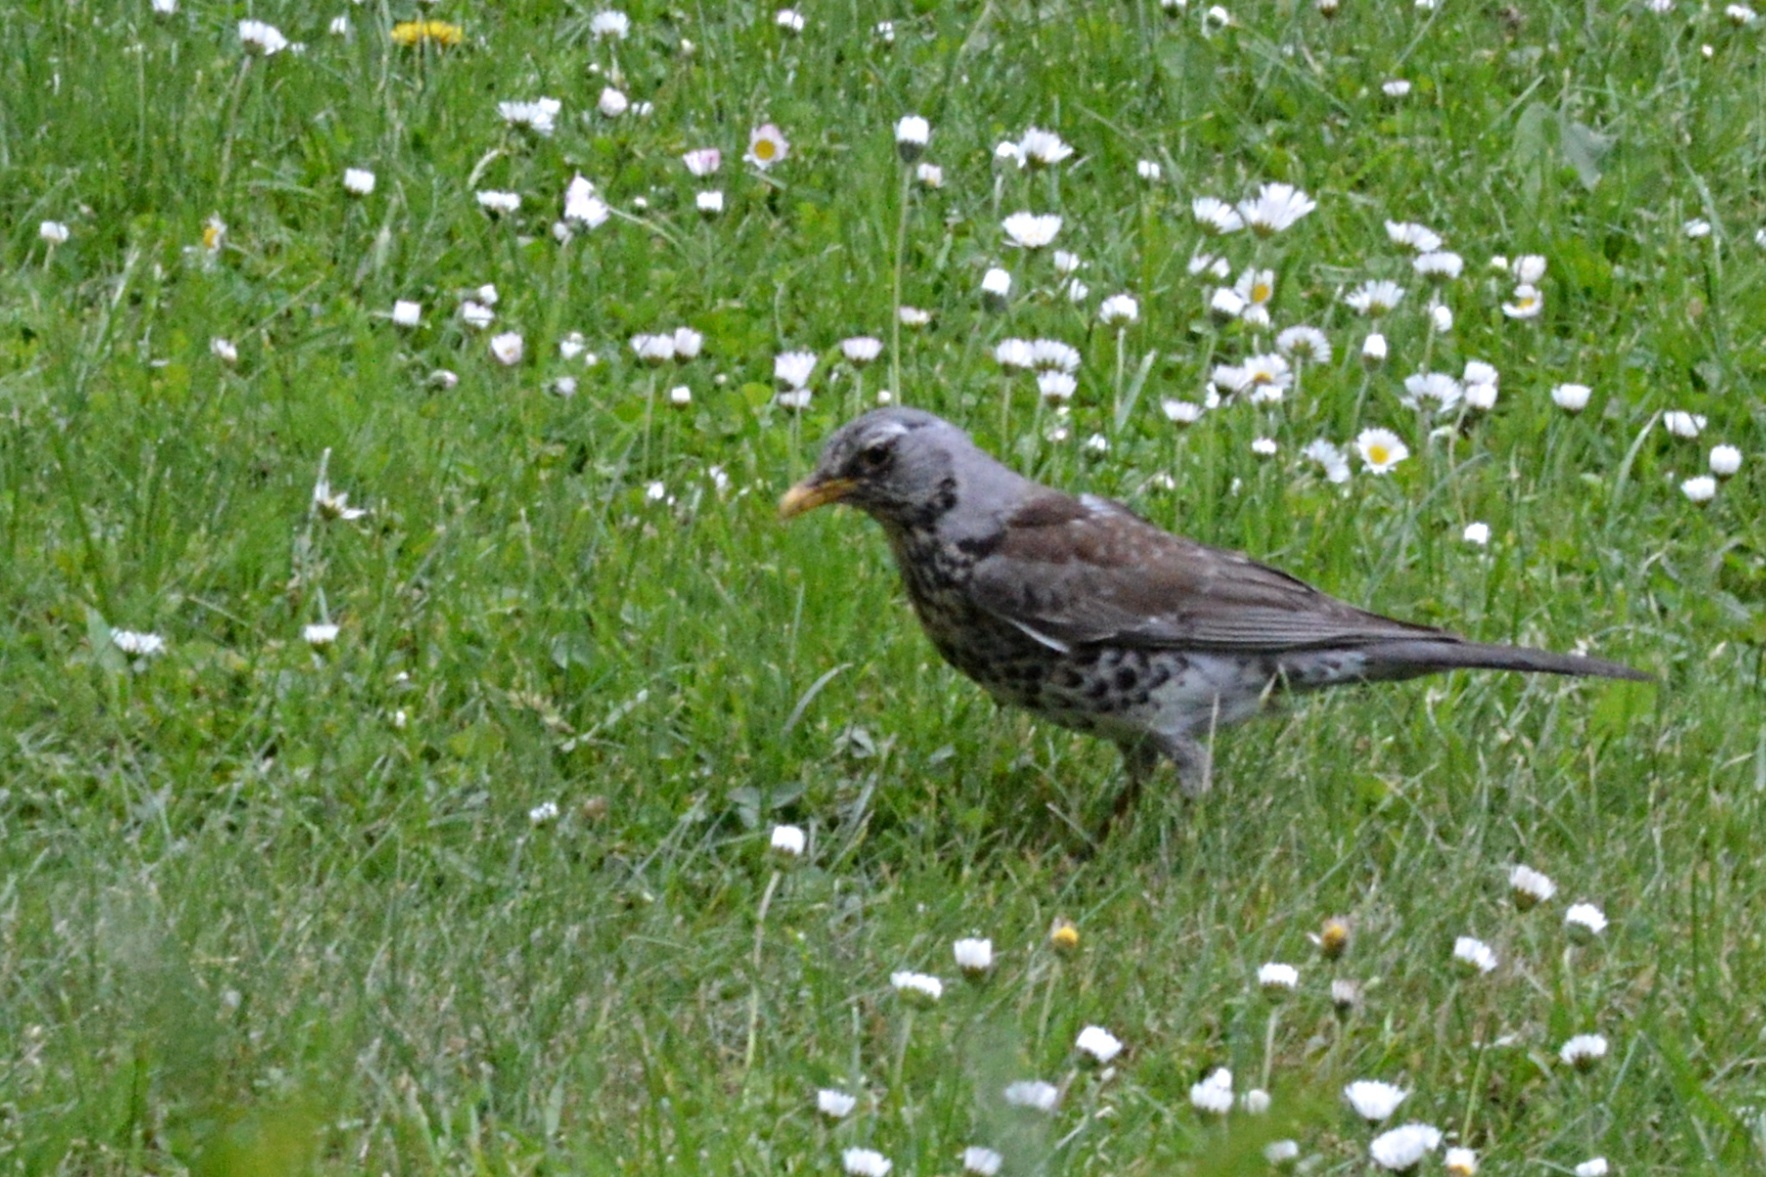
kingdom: Animalia
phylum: Chordata
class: Aves
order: Passeriformes
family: Turdidae
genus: Turdus
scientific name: Turdus pilaris
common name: Fieldfare
